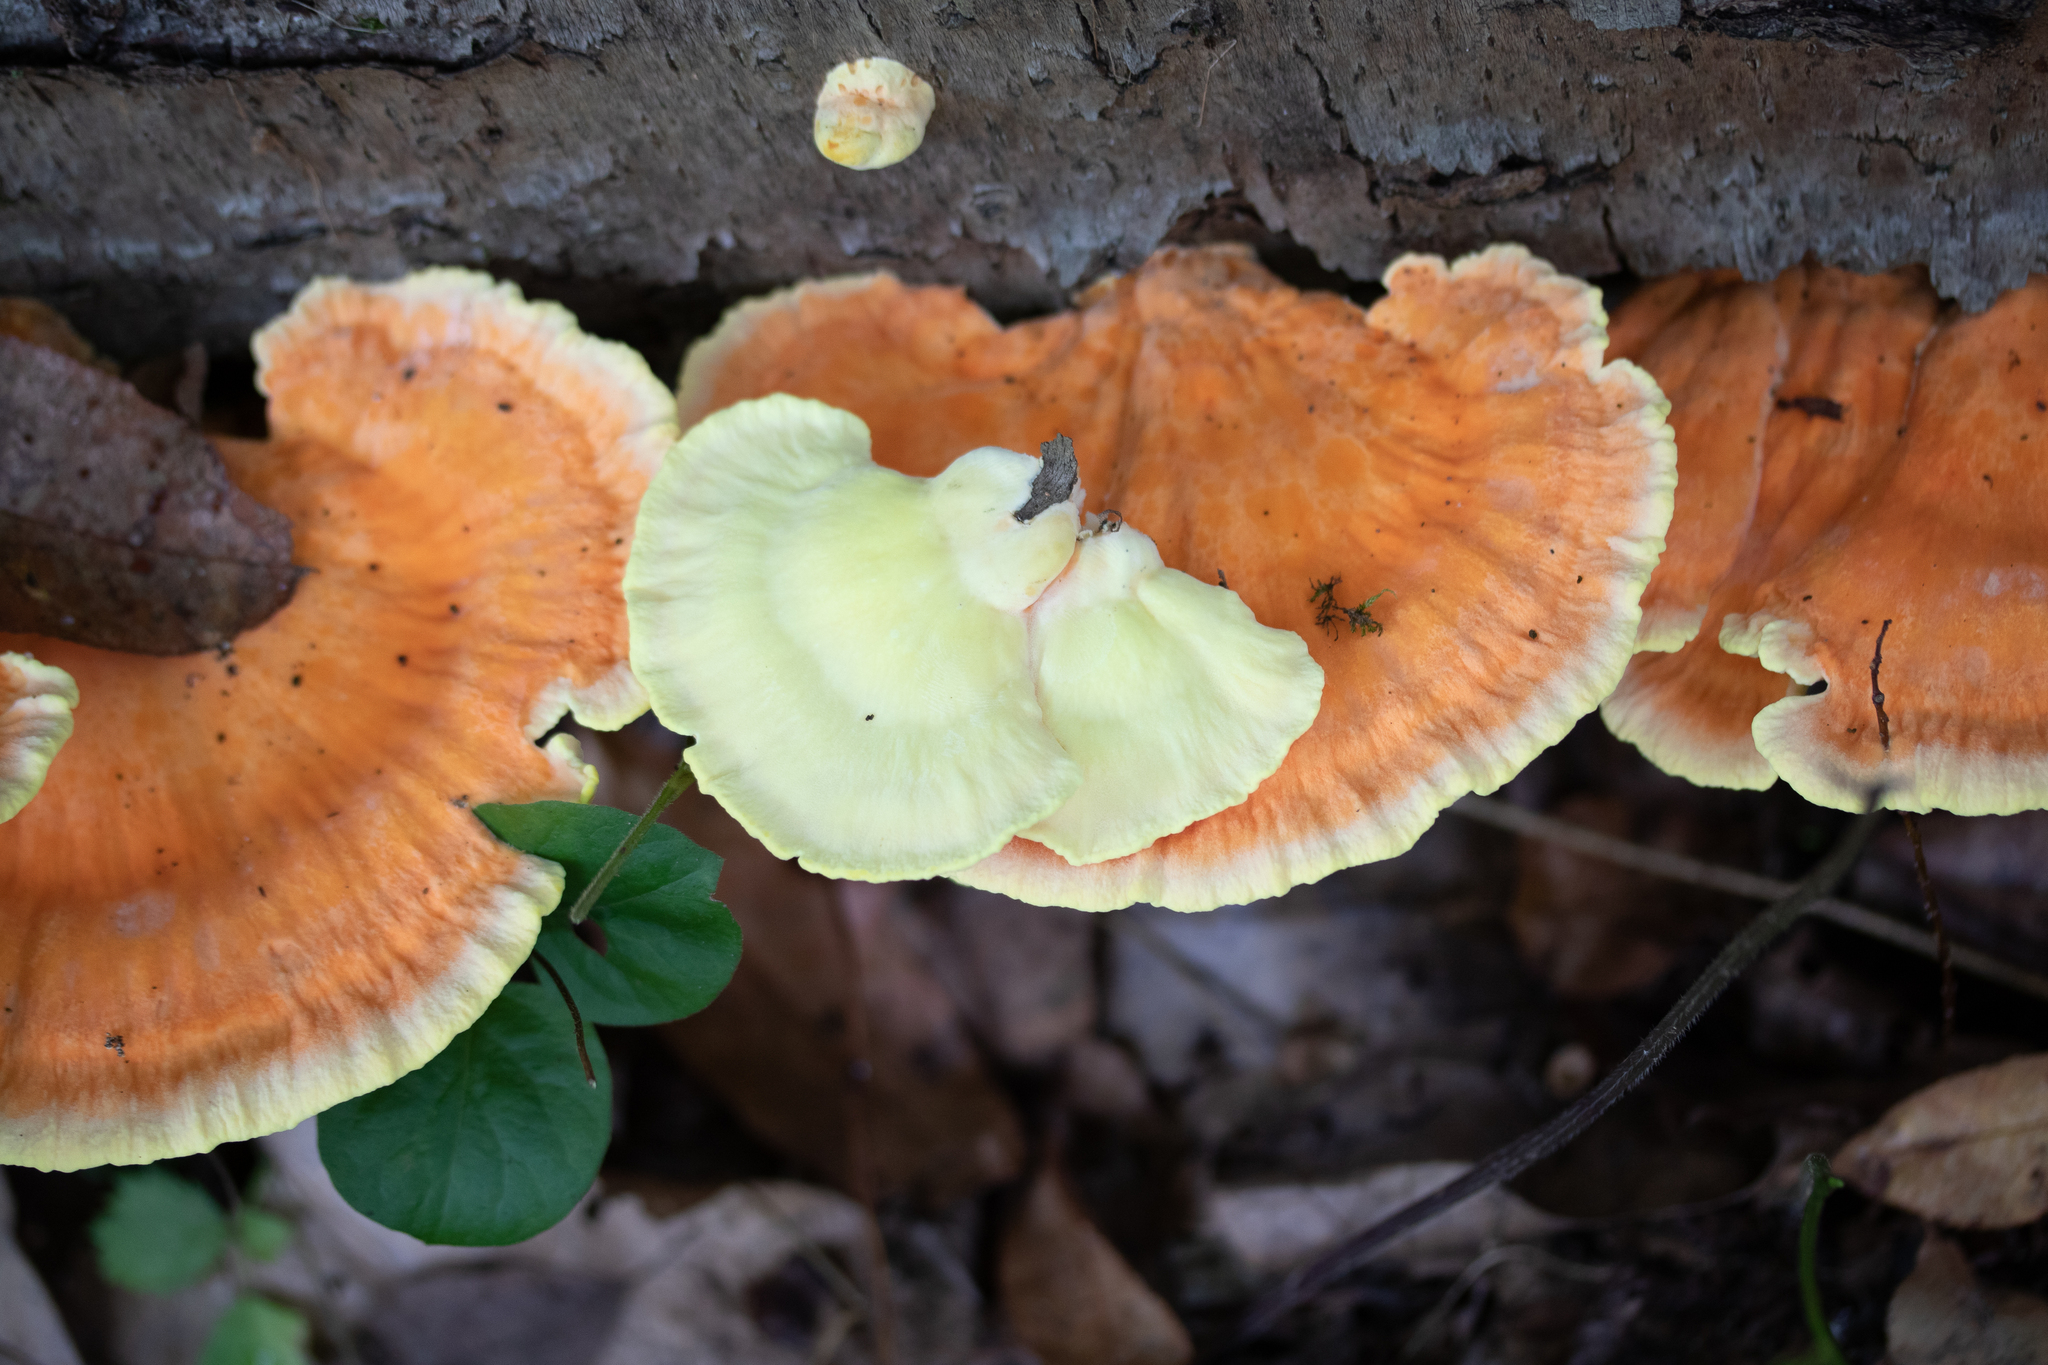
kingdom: Fungi
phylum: Basidiomycota
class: Agaricomycetes
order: Polyporales
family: Laetiporaceae
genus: Laetiporus
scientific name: Laetiporus sulphureus
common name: Chicken of the woods
